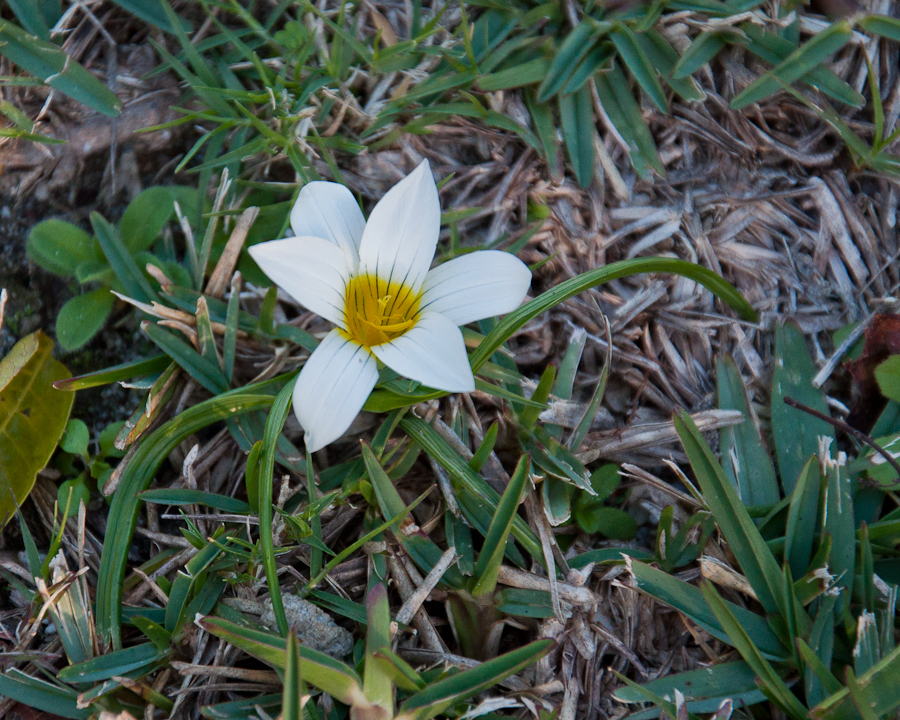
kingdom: Plantae
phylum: Tracheophyta
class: Liliopsida
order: Asparagales
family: Iridaceae
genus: Romulea
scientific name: Romulea flava
